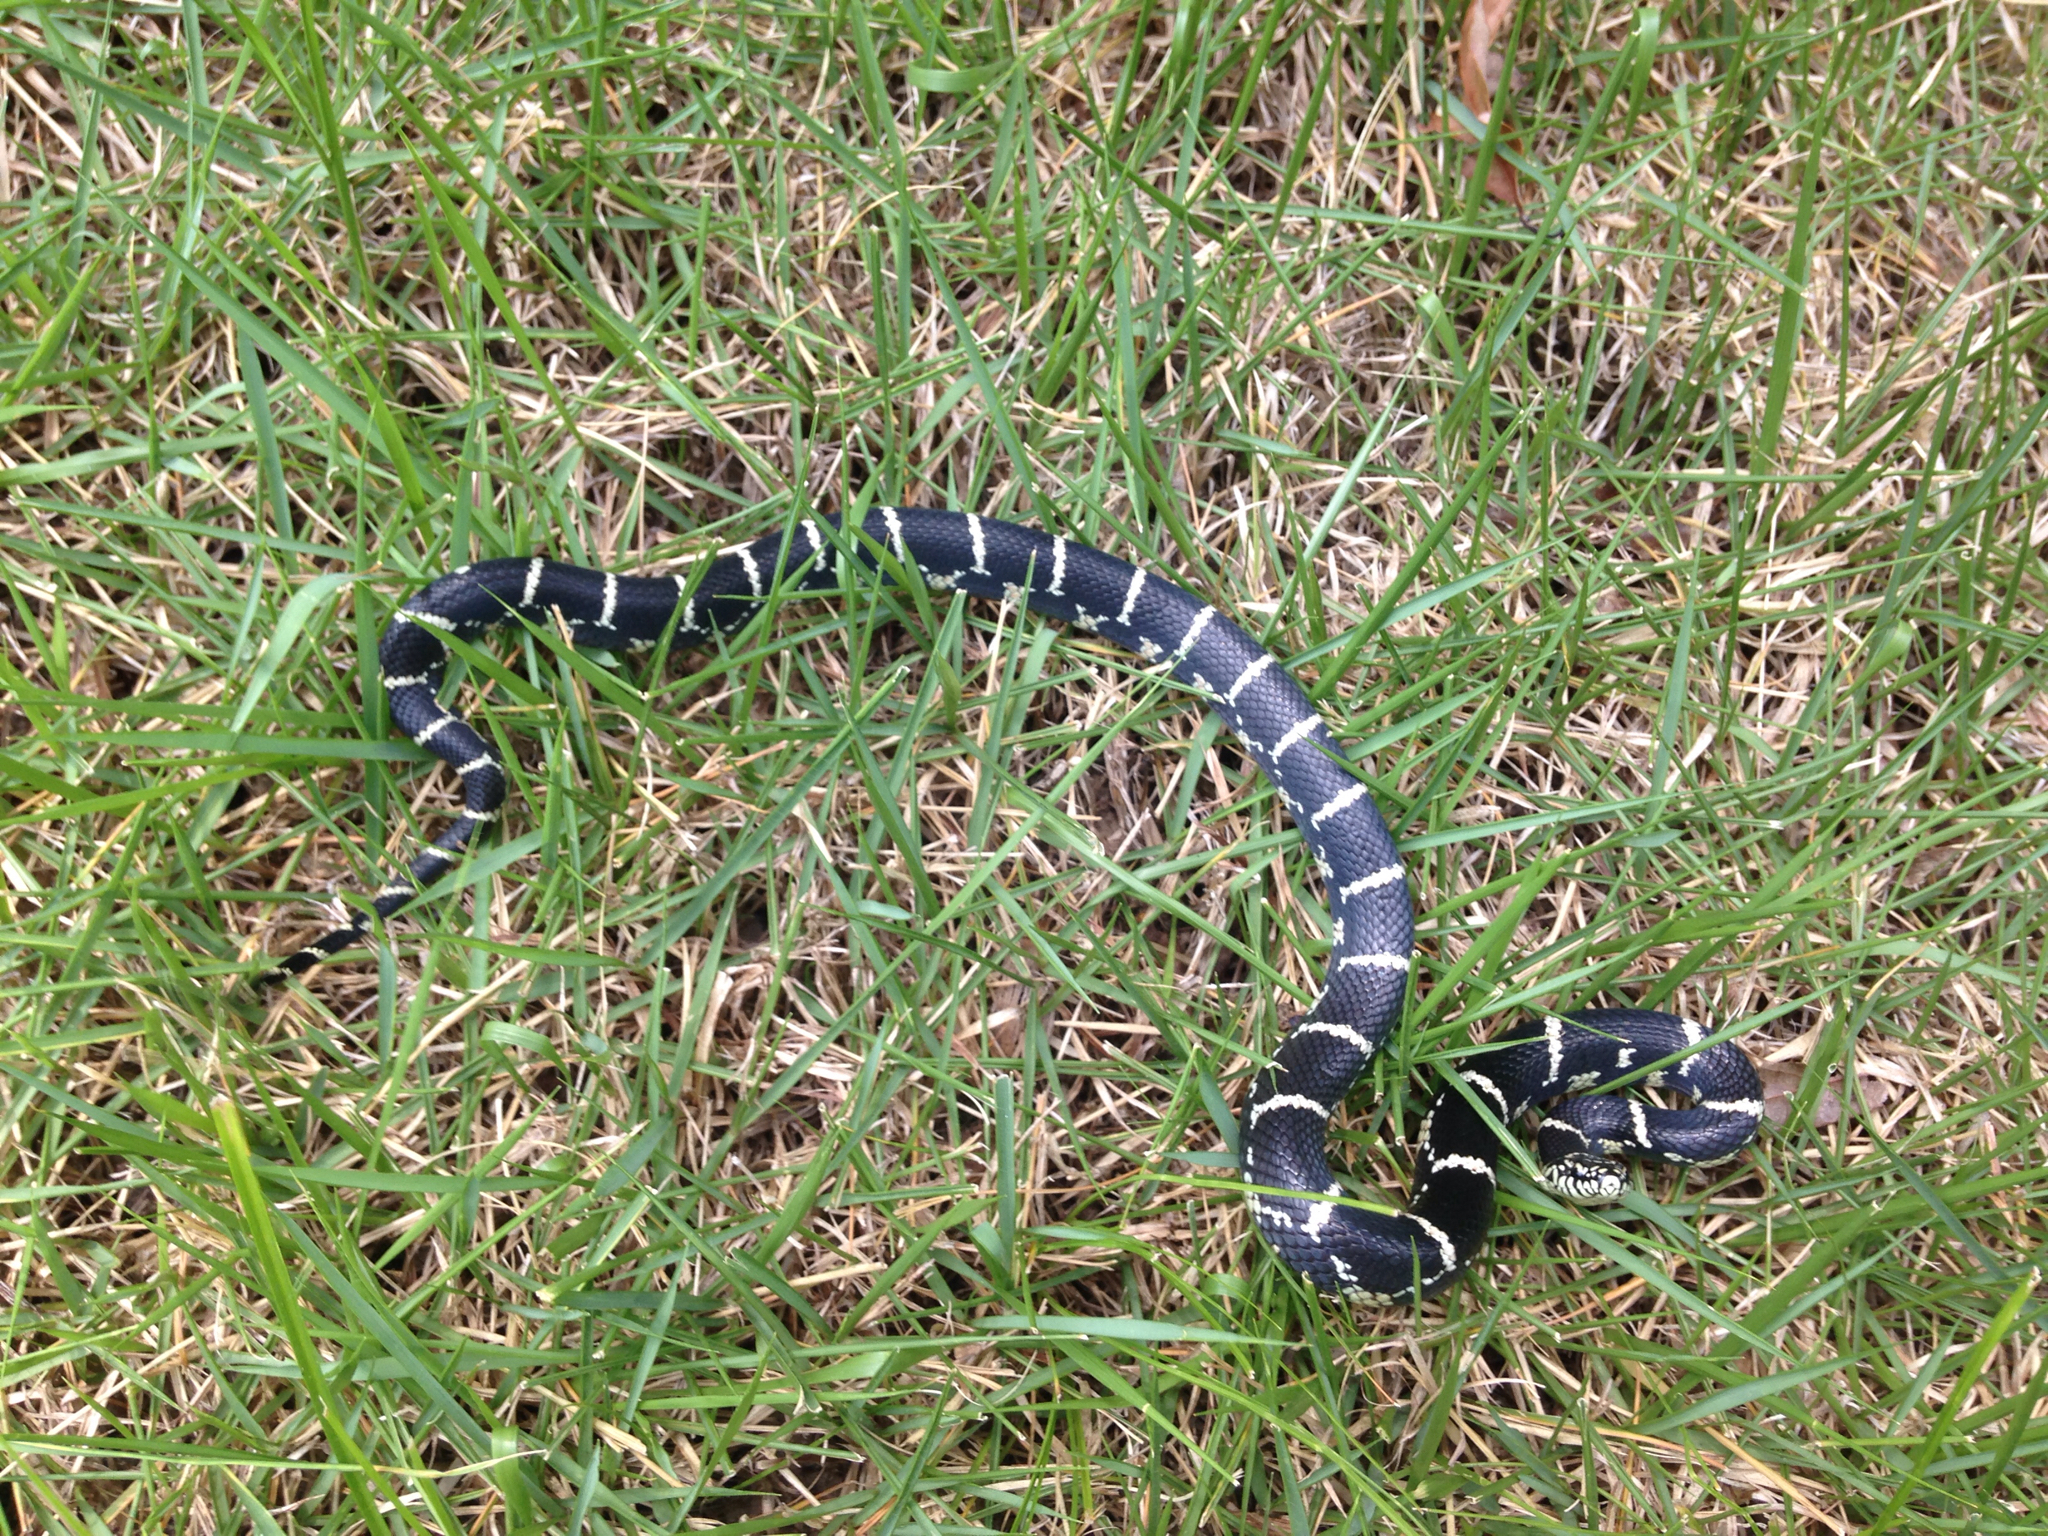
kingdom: Animalia
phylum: Chordata
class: Squamata
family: Colubridae
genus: Lampropeltis
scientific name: Lampropeltis getula
